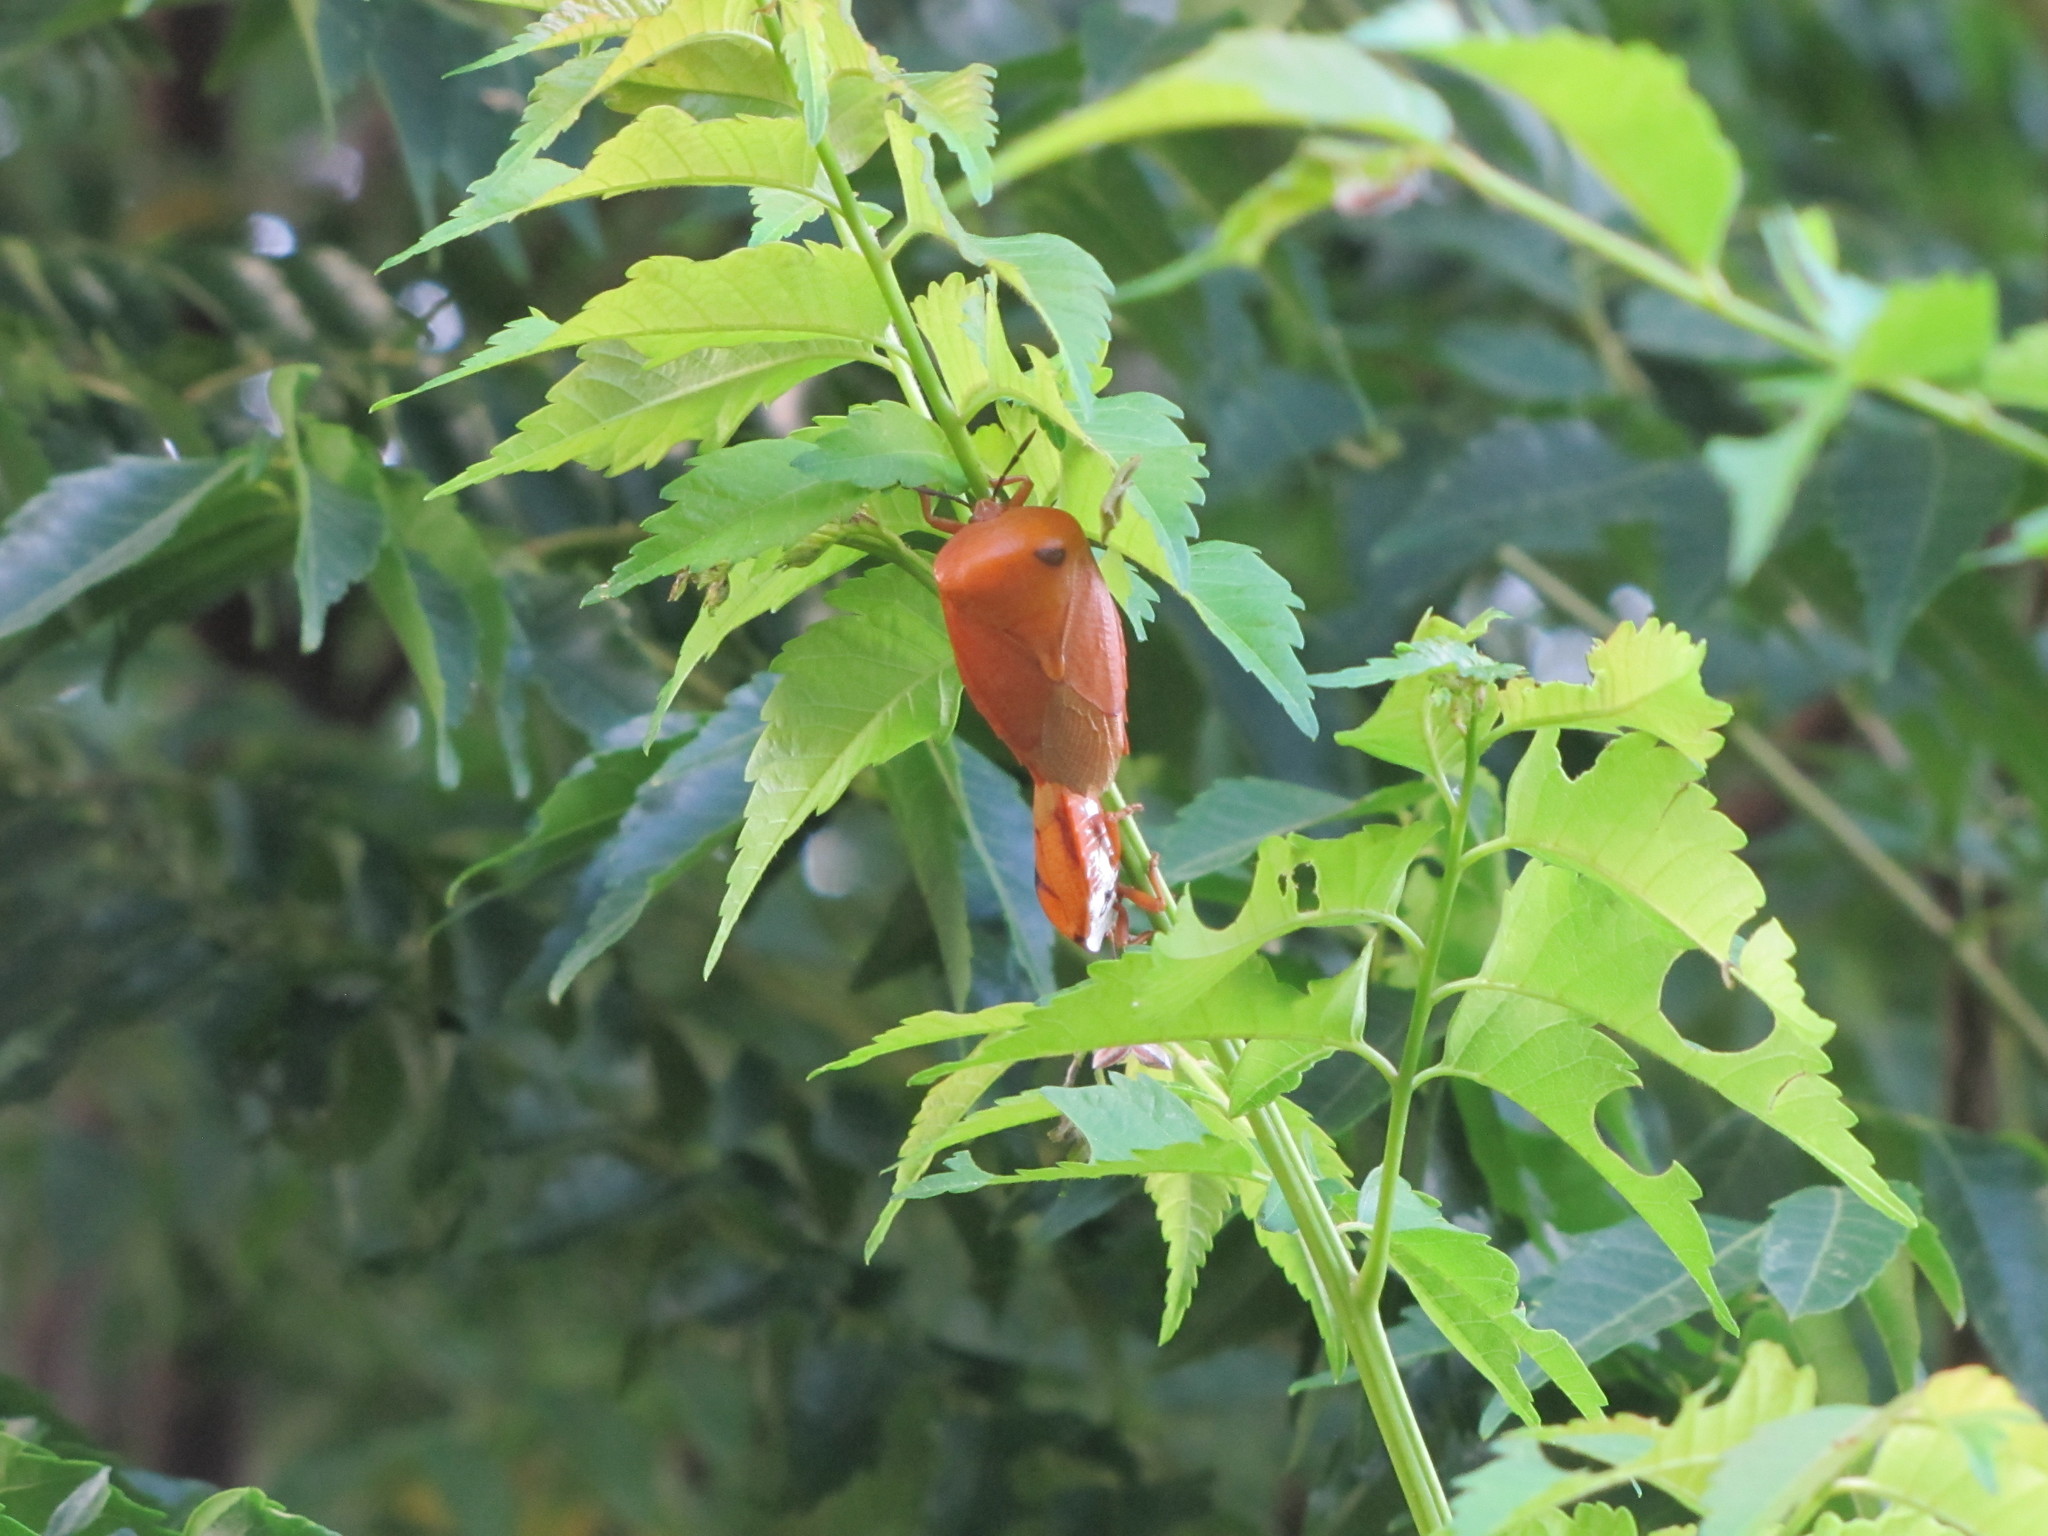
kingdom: Animalia
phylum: Arthropoda
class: Insecta
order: Hemiptera
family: Tessaratomidae
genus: Tessaratoma
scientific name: Tessaratoma papillosa
